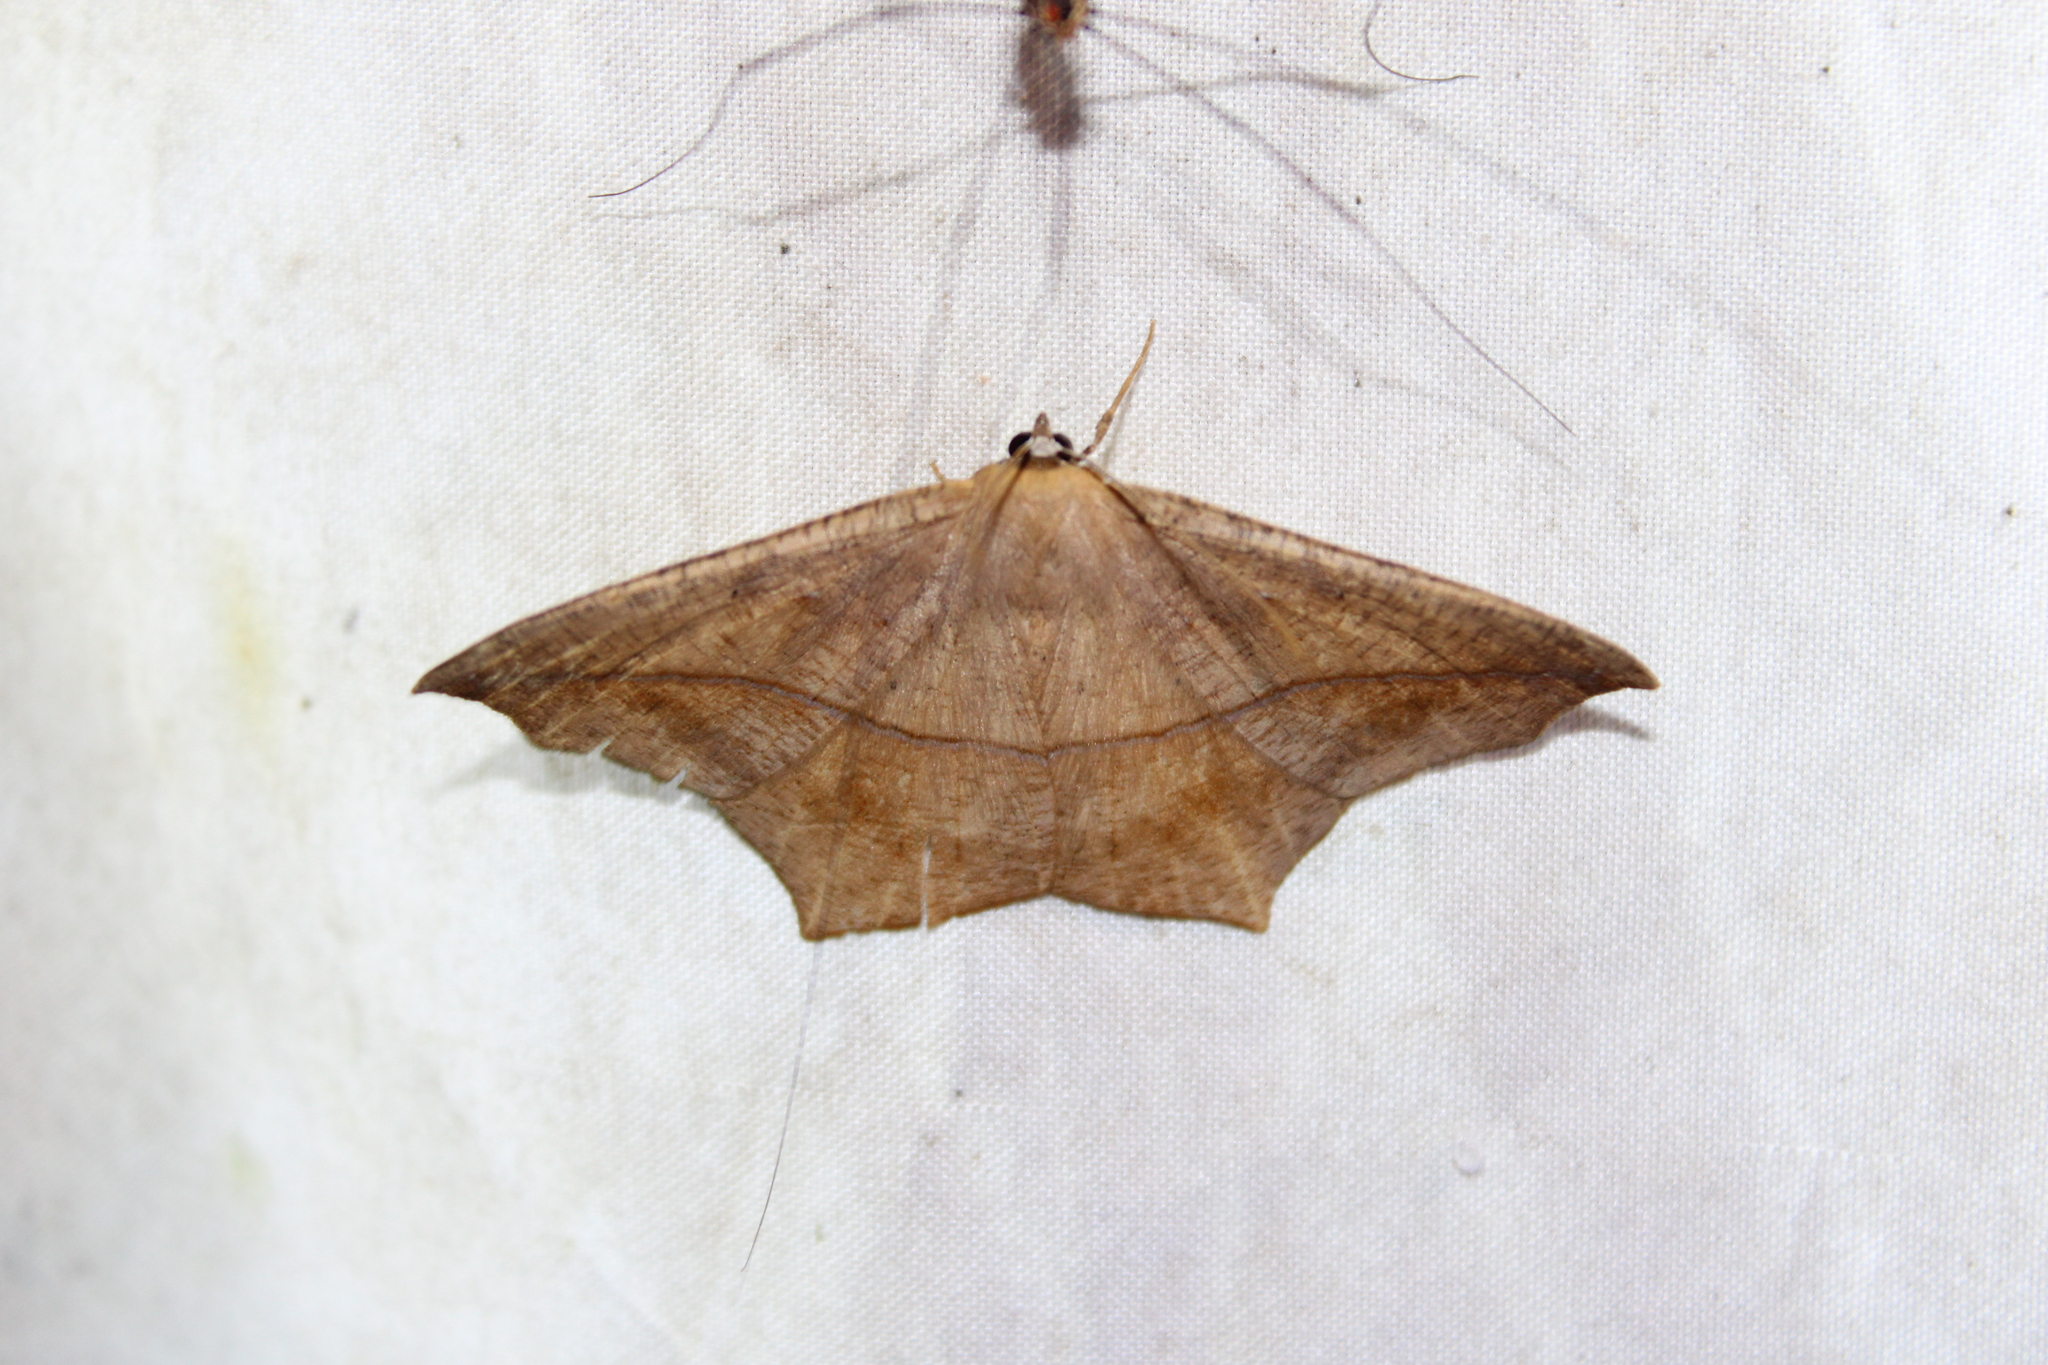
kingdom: Animalia
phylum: Arthropoda
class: Insecta
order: Lepidoptera
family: Geometridae
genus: Prochoerodes
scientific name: Prochoerodes lineola
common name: Large maple spanworm
